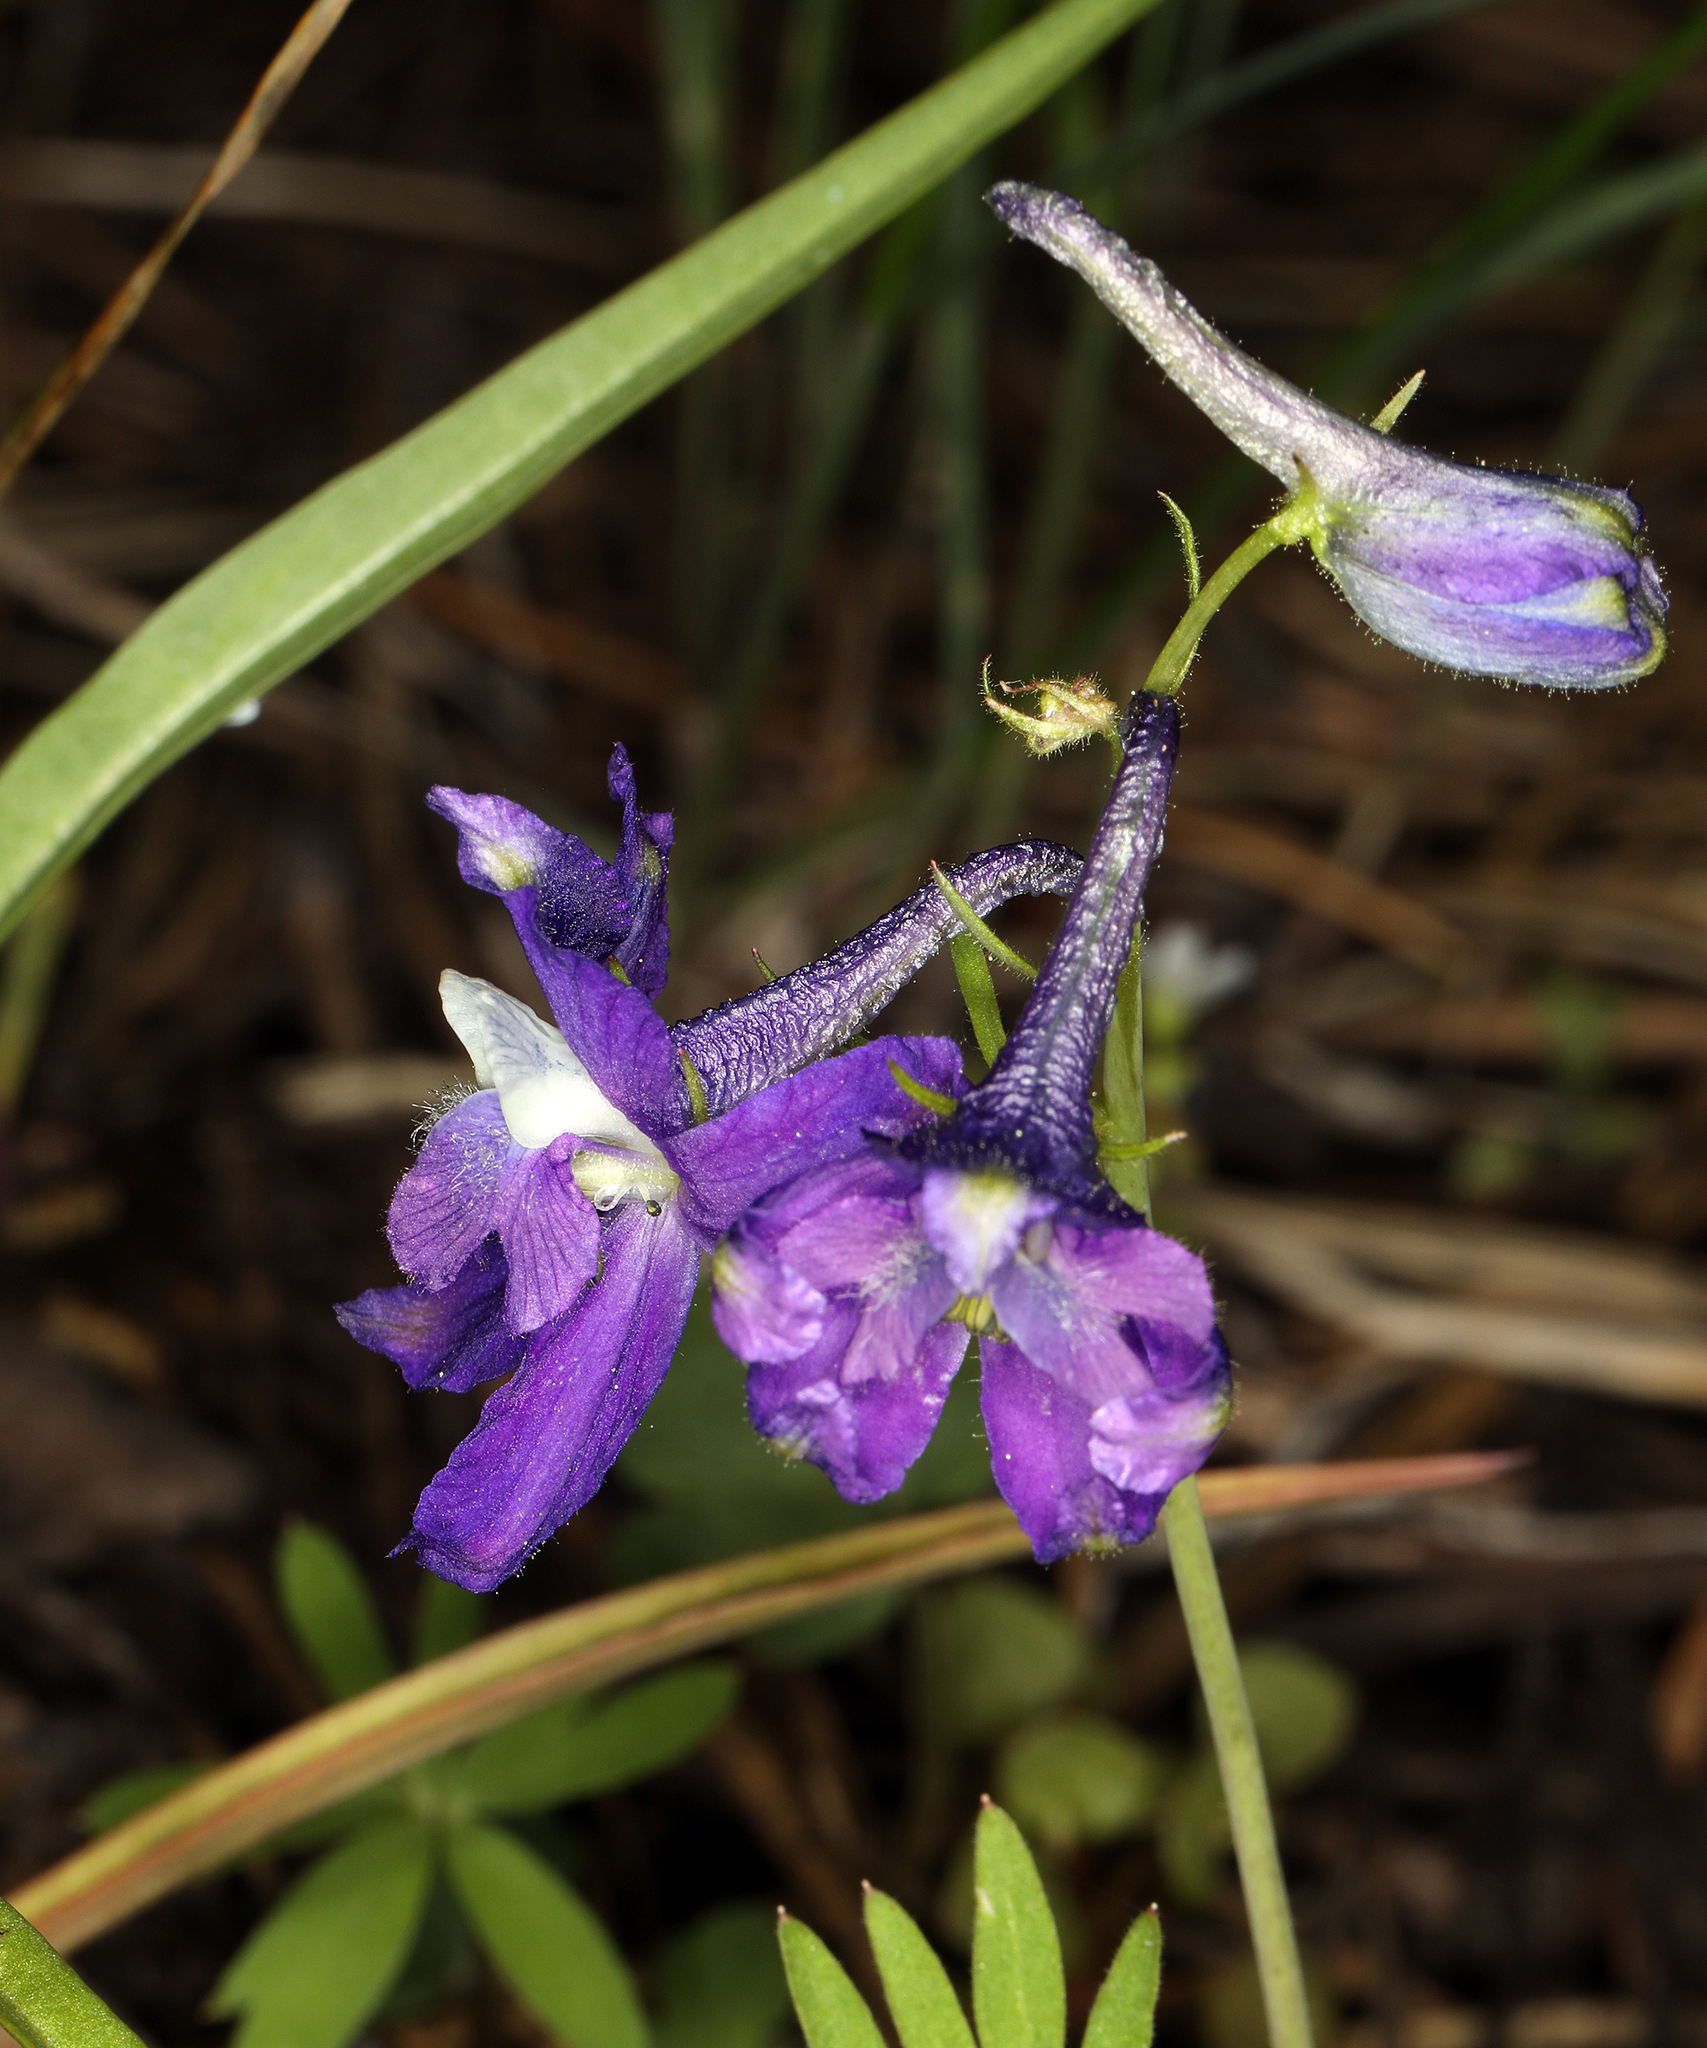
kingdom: Plantae
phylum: Tracheophyta
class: Magnoliopsida
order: Ranunculales
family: Ranunculaceae
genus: Delphinium
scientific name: Delphinium nuttallianum
